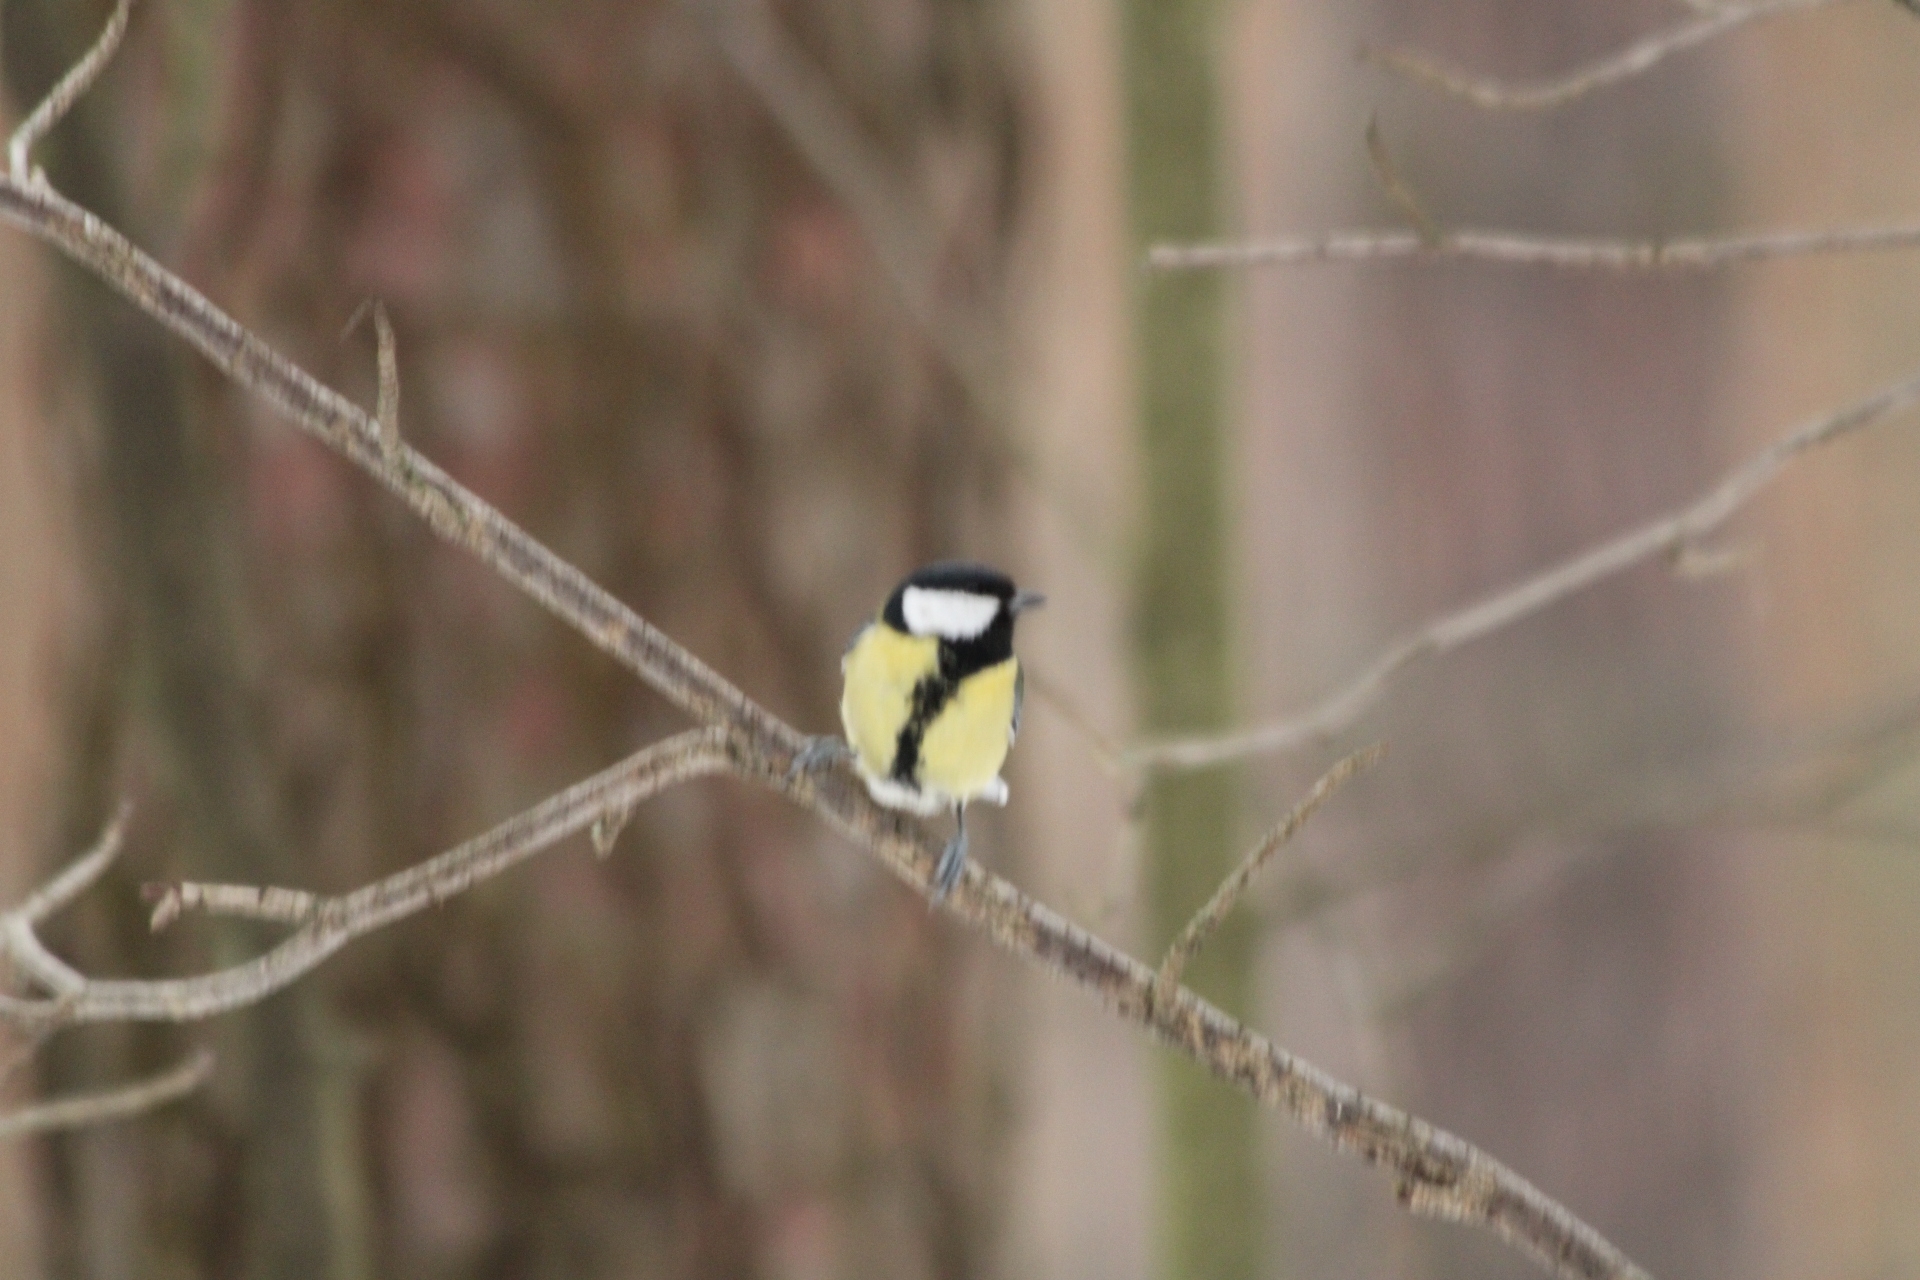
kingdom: Animalia
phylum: Chordata
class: Aves
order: Passeriformes
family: Paridae
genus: Parus
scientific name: Parus major
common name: Great tit
